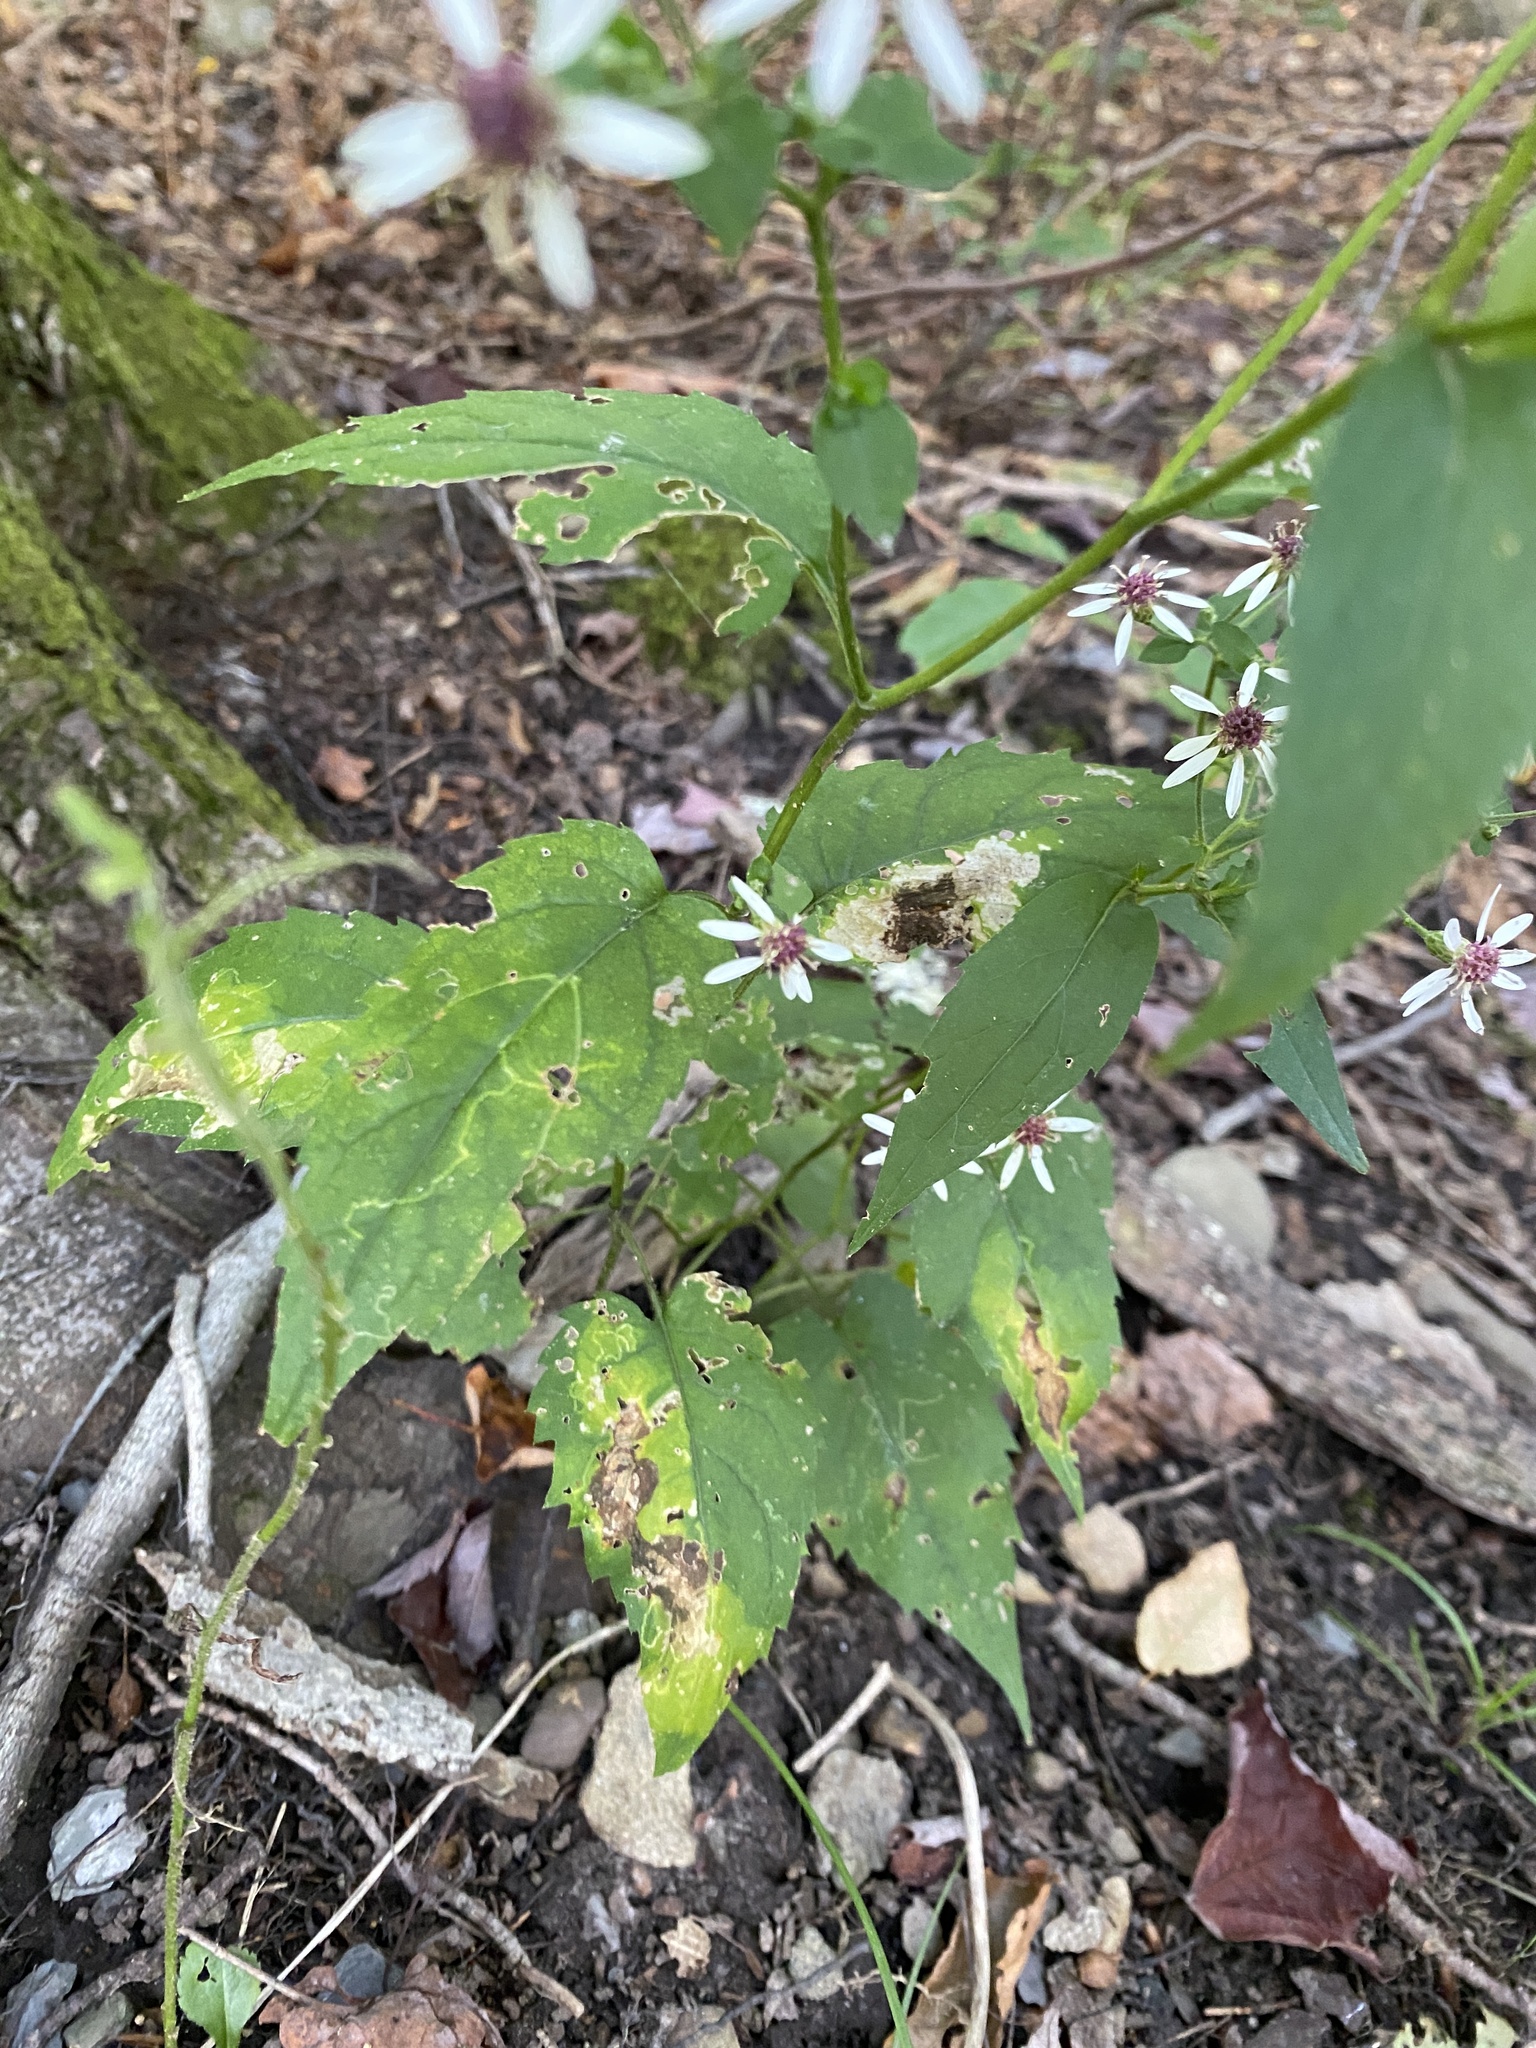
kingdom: Plantae
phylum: Tracheophyta
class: Magnoliopsida
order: Asterales
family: Asteraceae
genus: Eurybia
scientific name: Eurybia divaricata
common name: White wood aster
